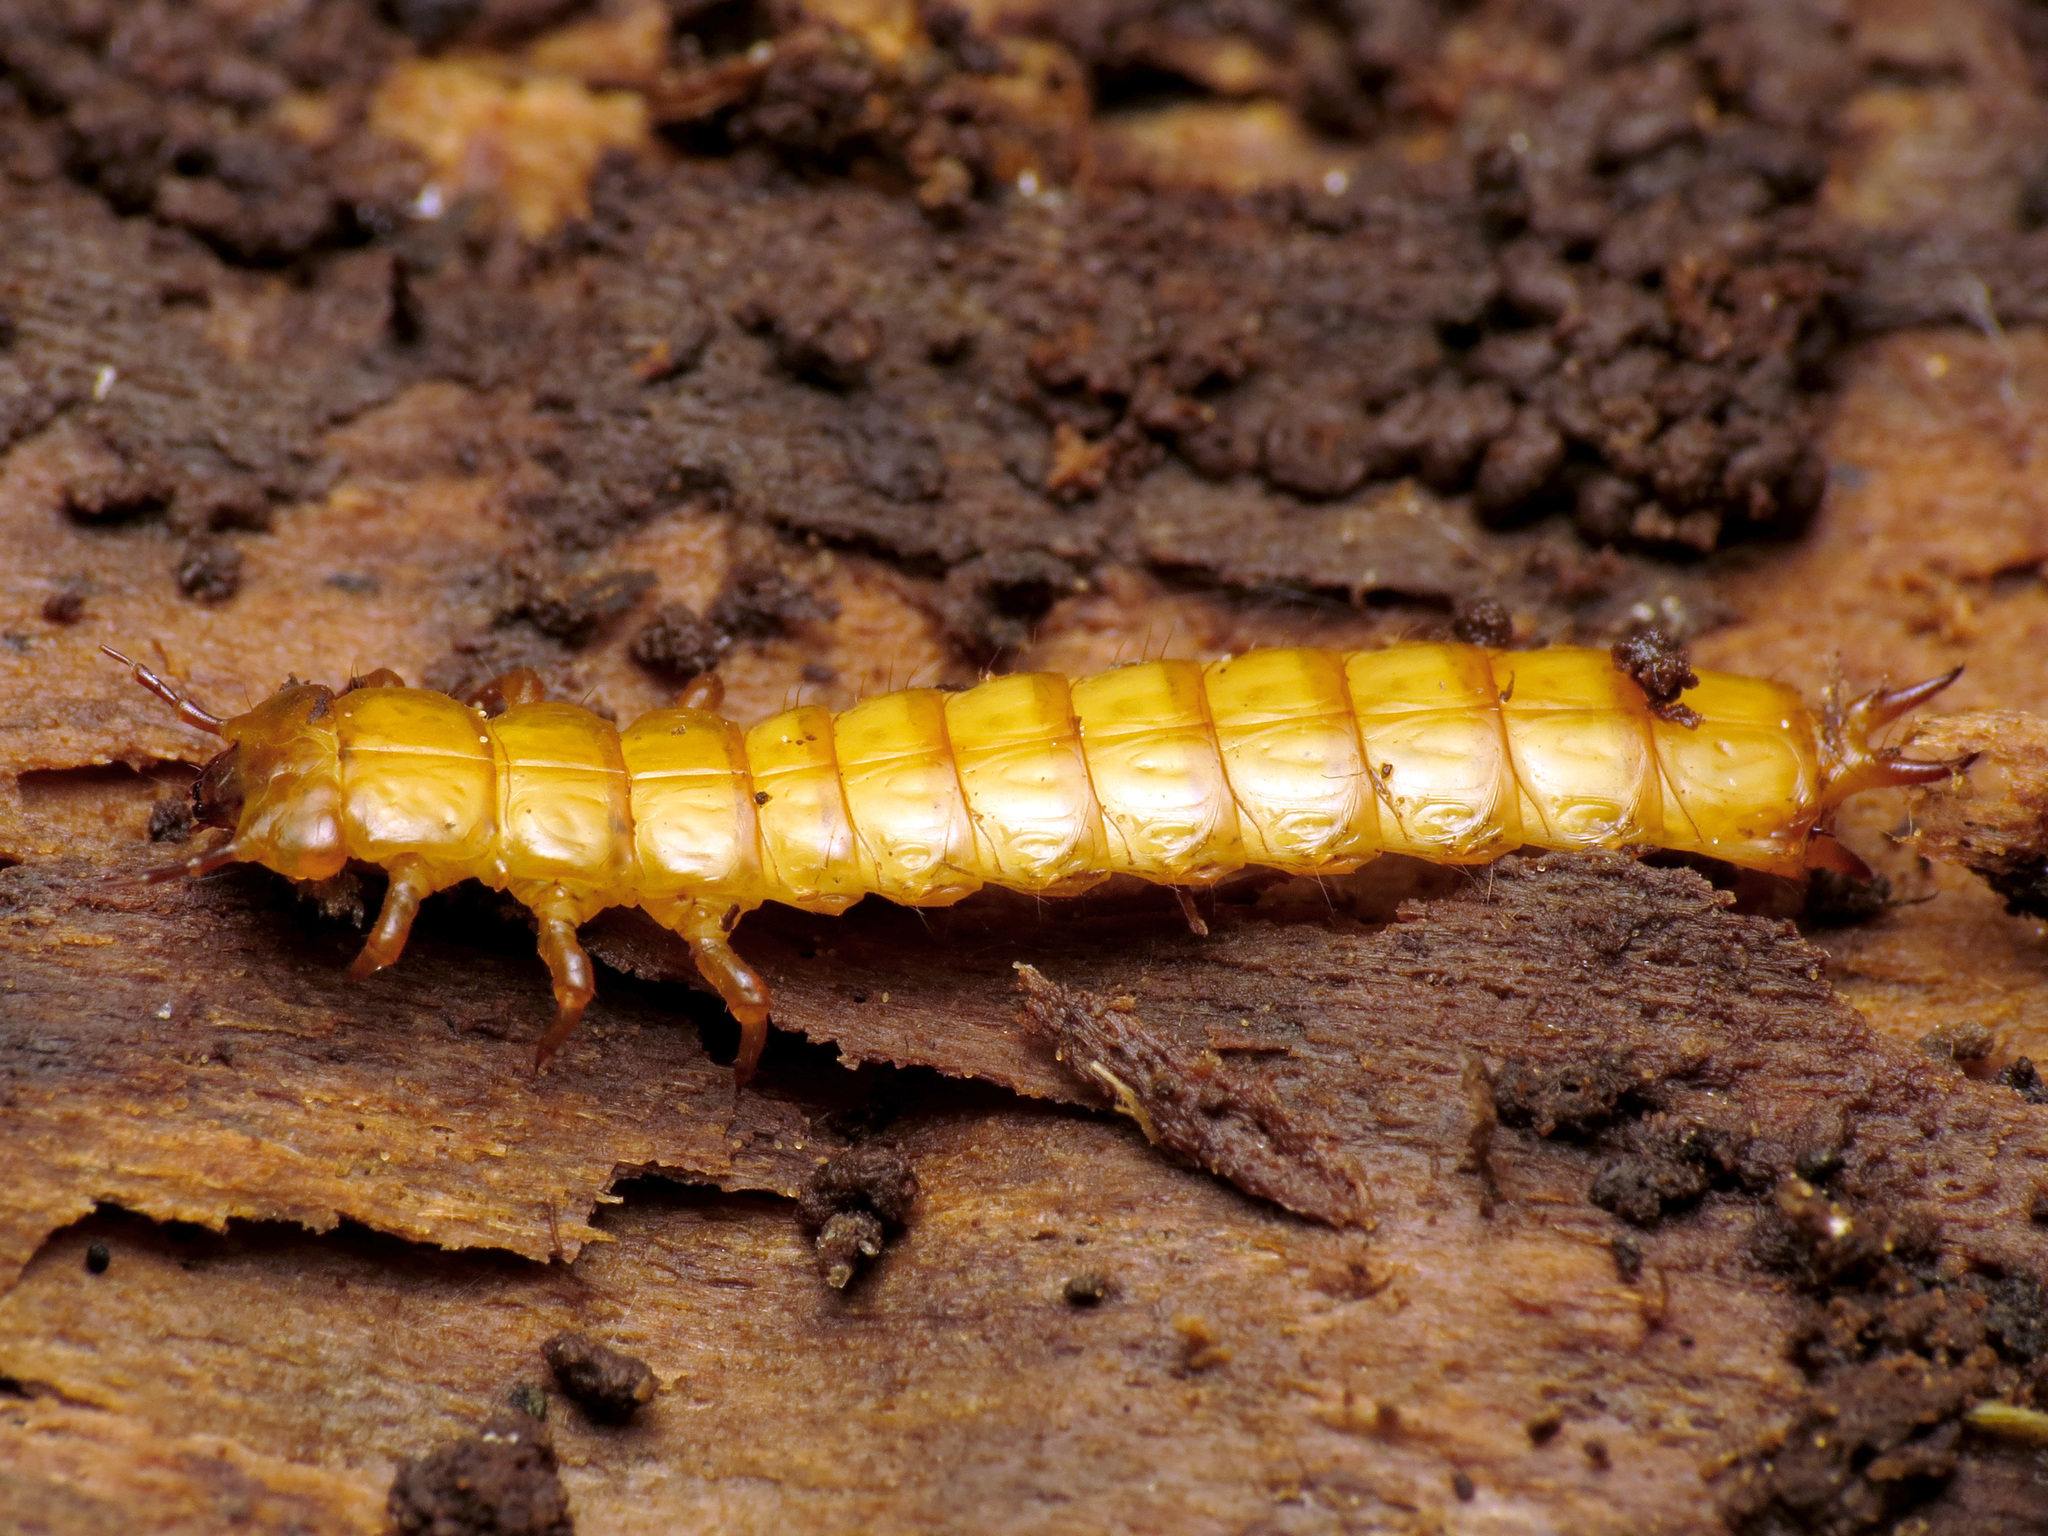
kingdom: Animalia
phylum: Arthropoda
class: Insecta
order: Coleoptera
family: Cucujidae
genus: Cucujus
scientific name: Cucujus clavipes
